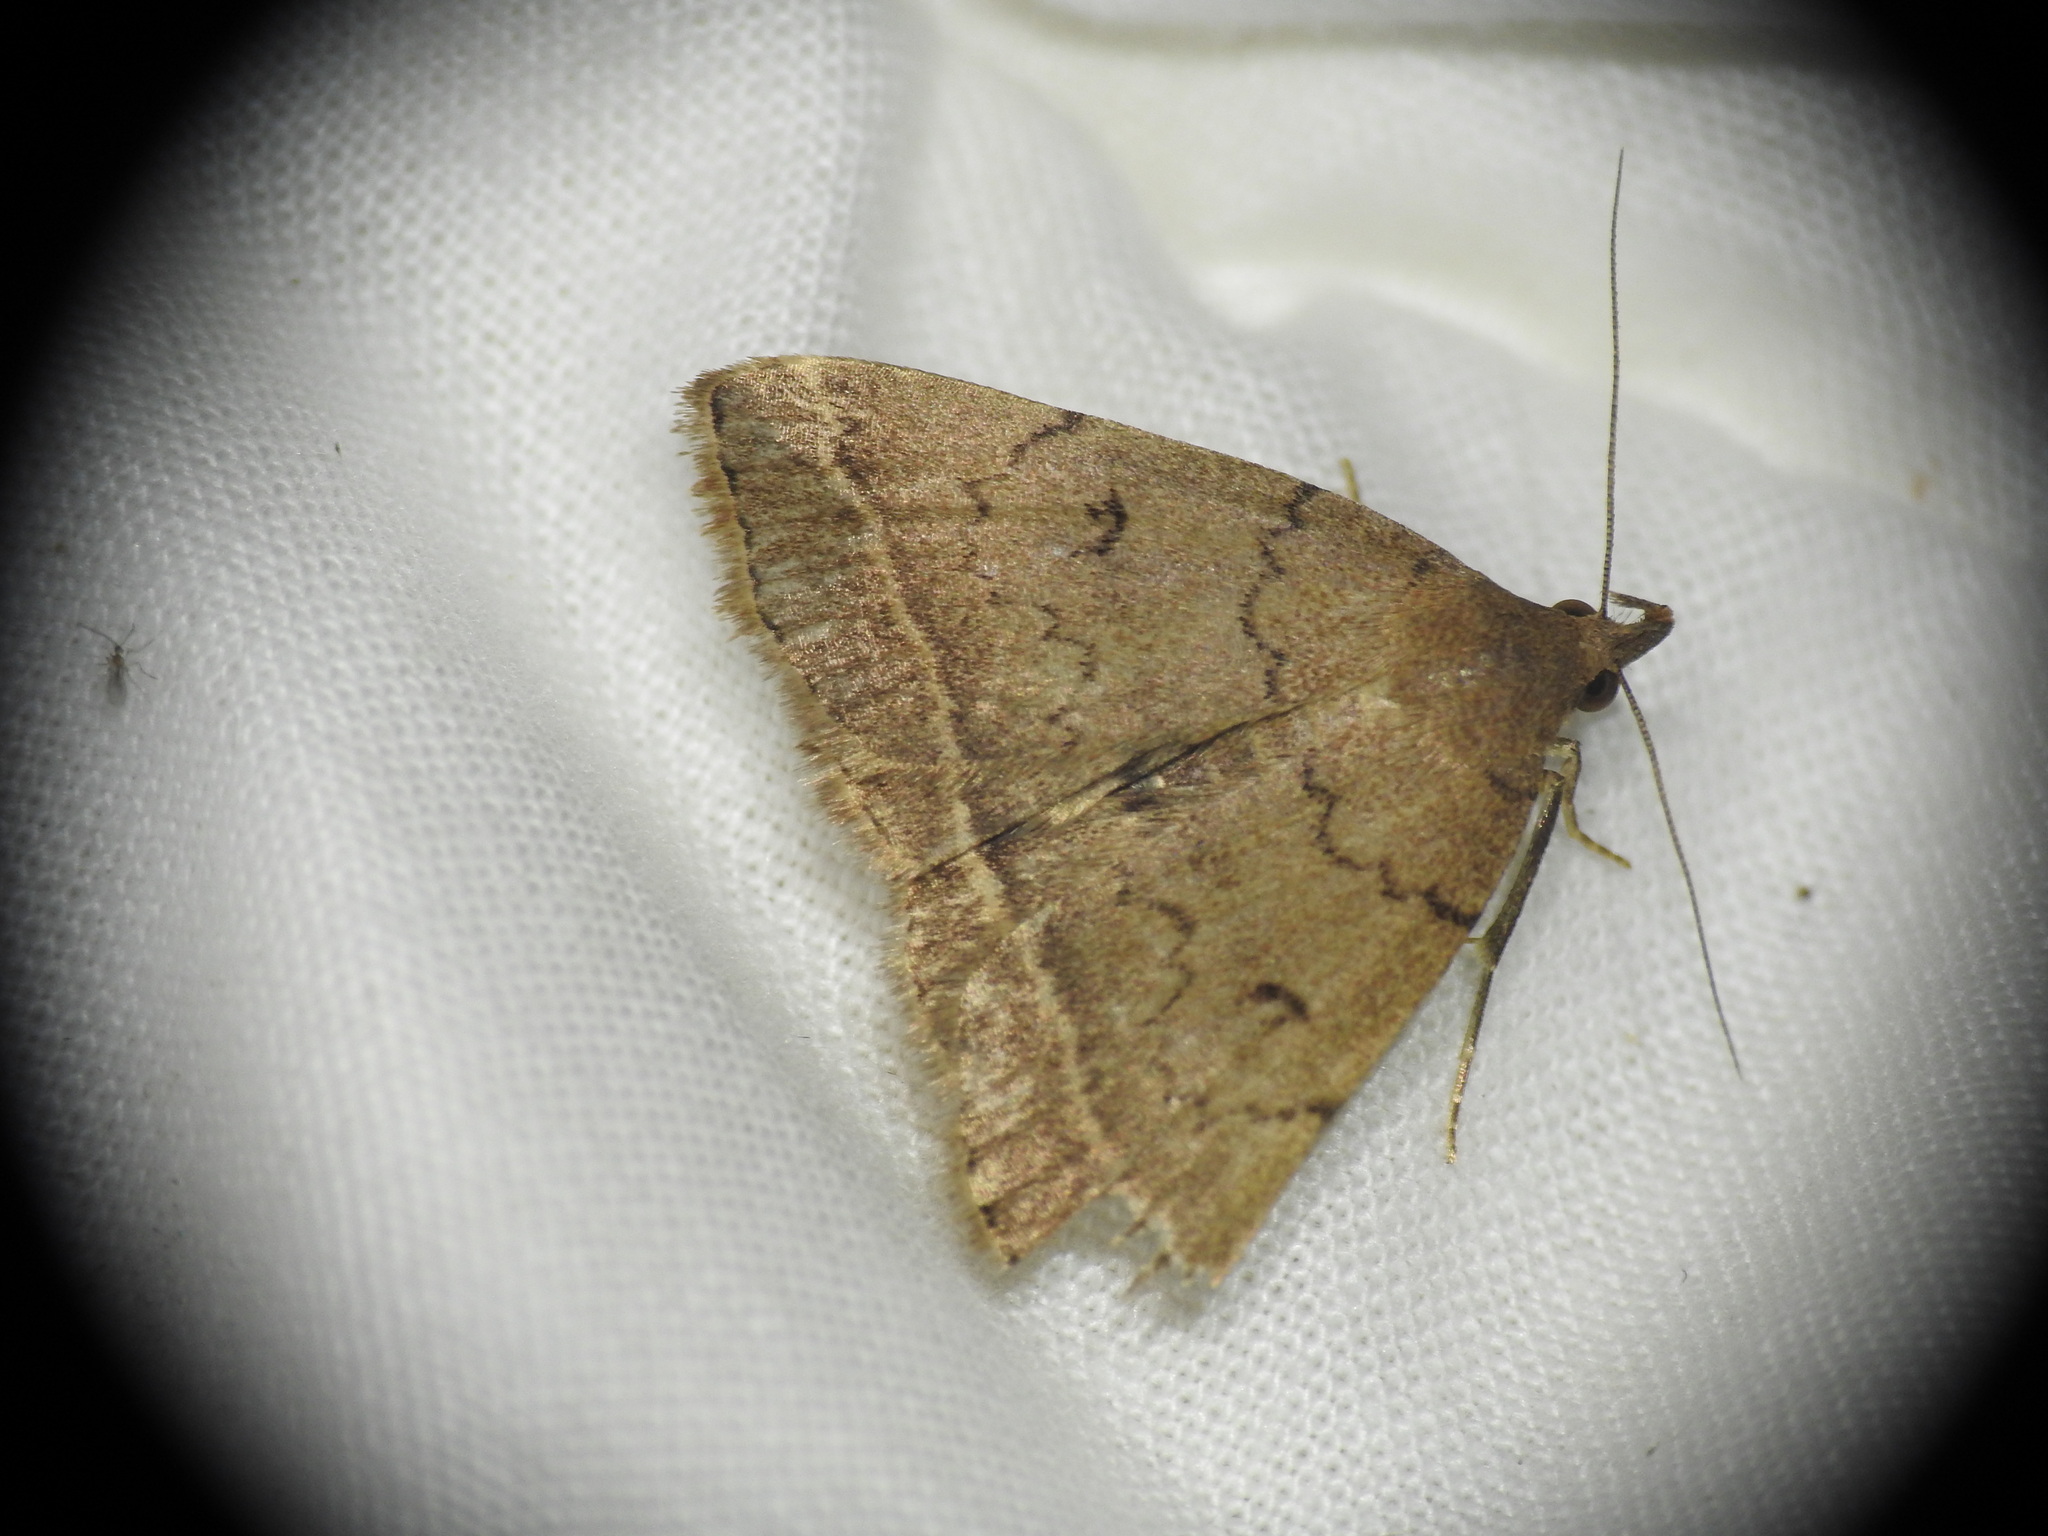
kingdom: Animalia
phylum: Arthropoda
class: Insecta
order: Lepidoptera
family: Erebidae
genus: Pechipogo
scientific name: Pechipogo plumigeralis
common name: Plumed fan-foot
